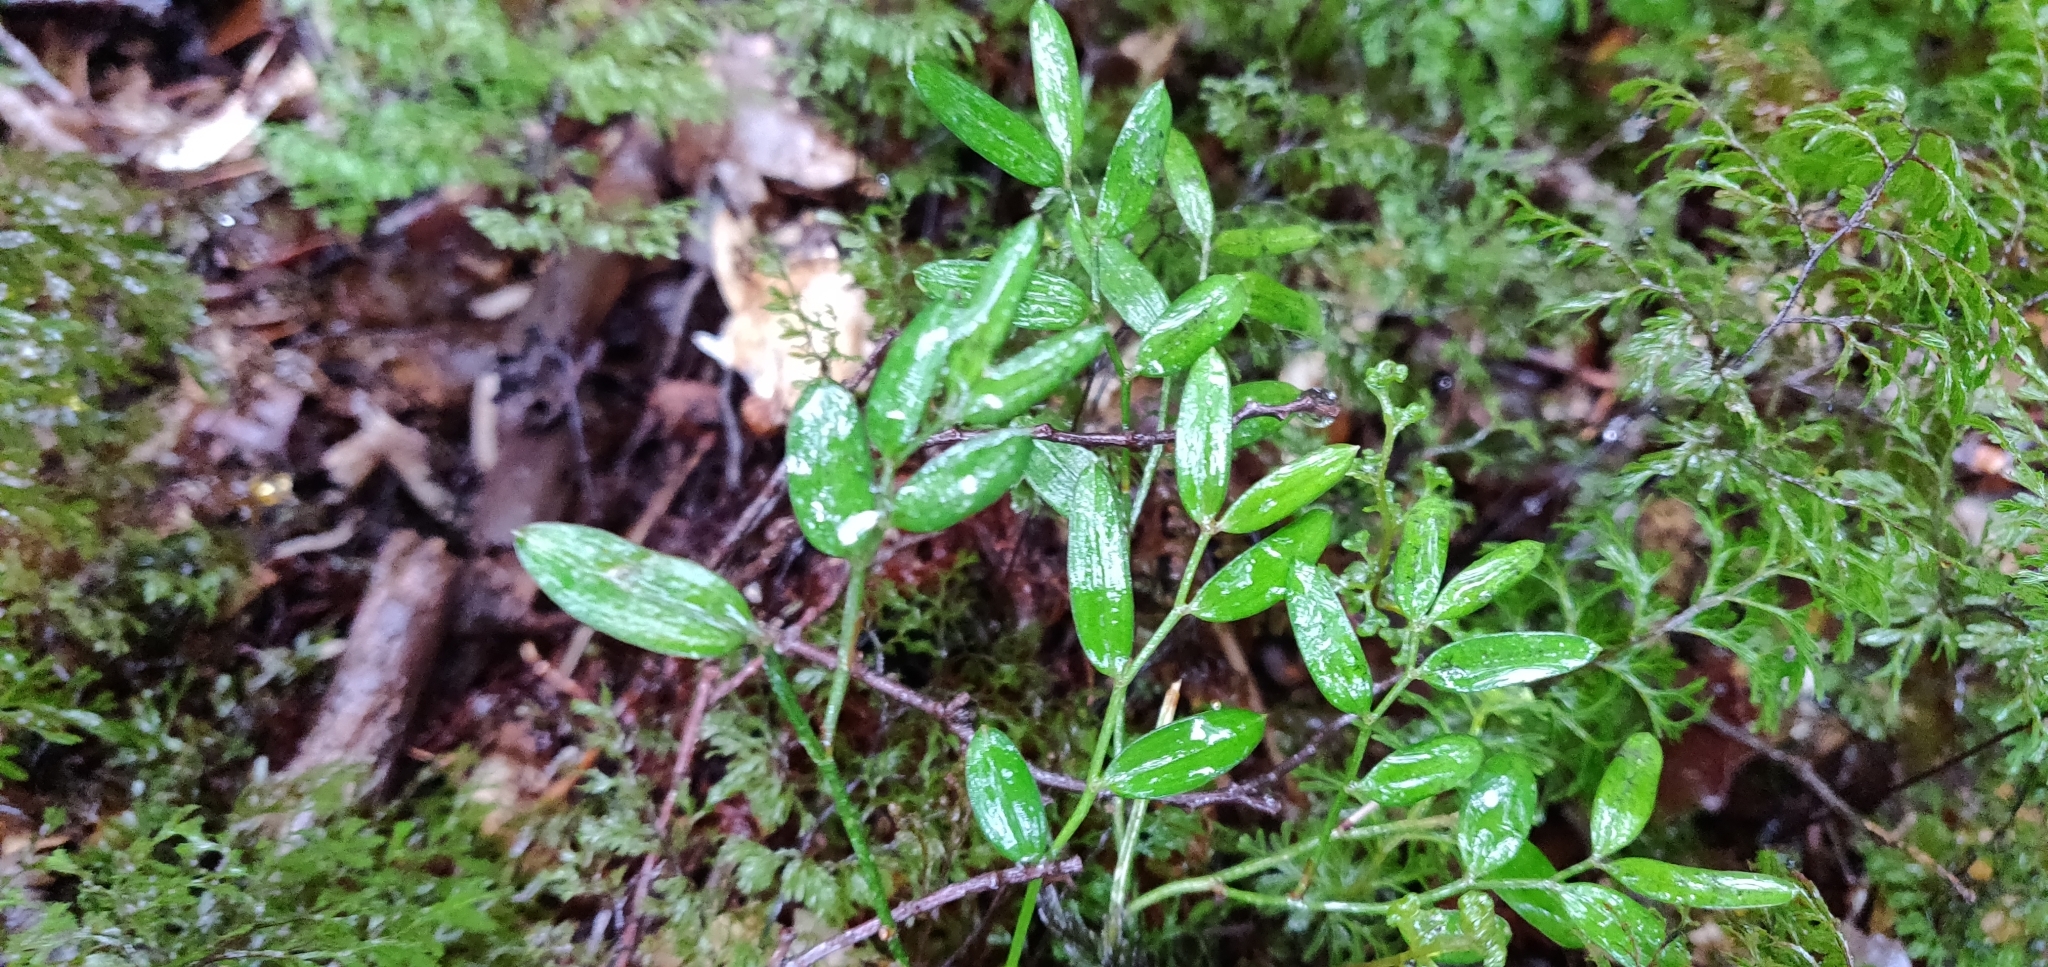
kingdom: Plantae
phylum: Tracheophyta
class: Liliopsida
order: Liliales
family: Alstroemeriaceae
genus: Luzuriaga
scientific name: Luzuriaga parviflora
